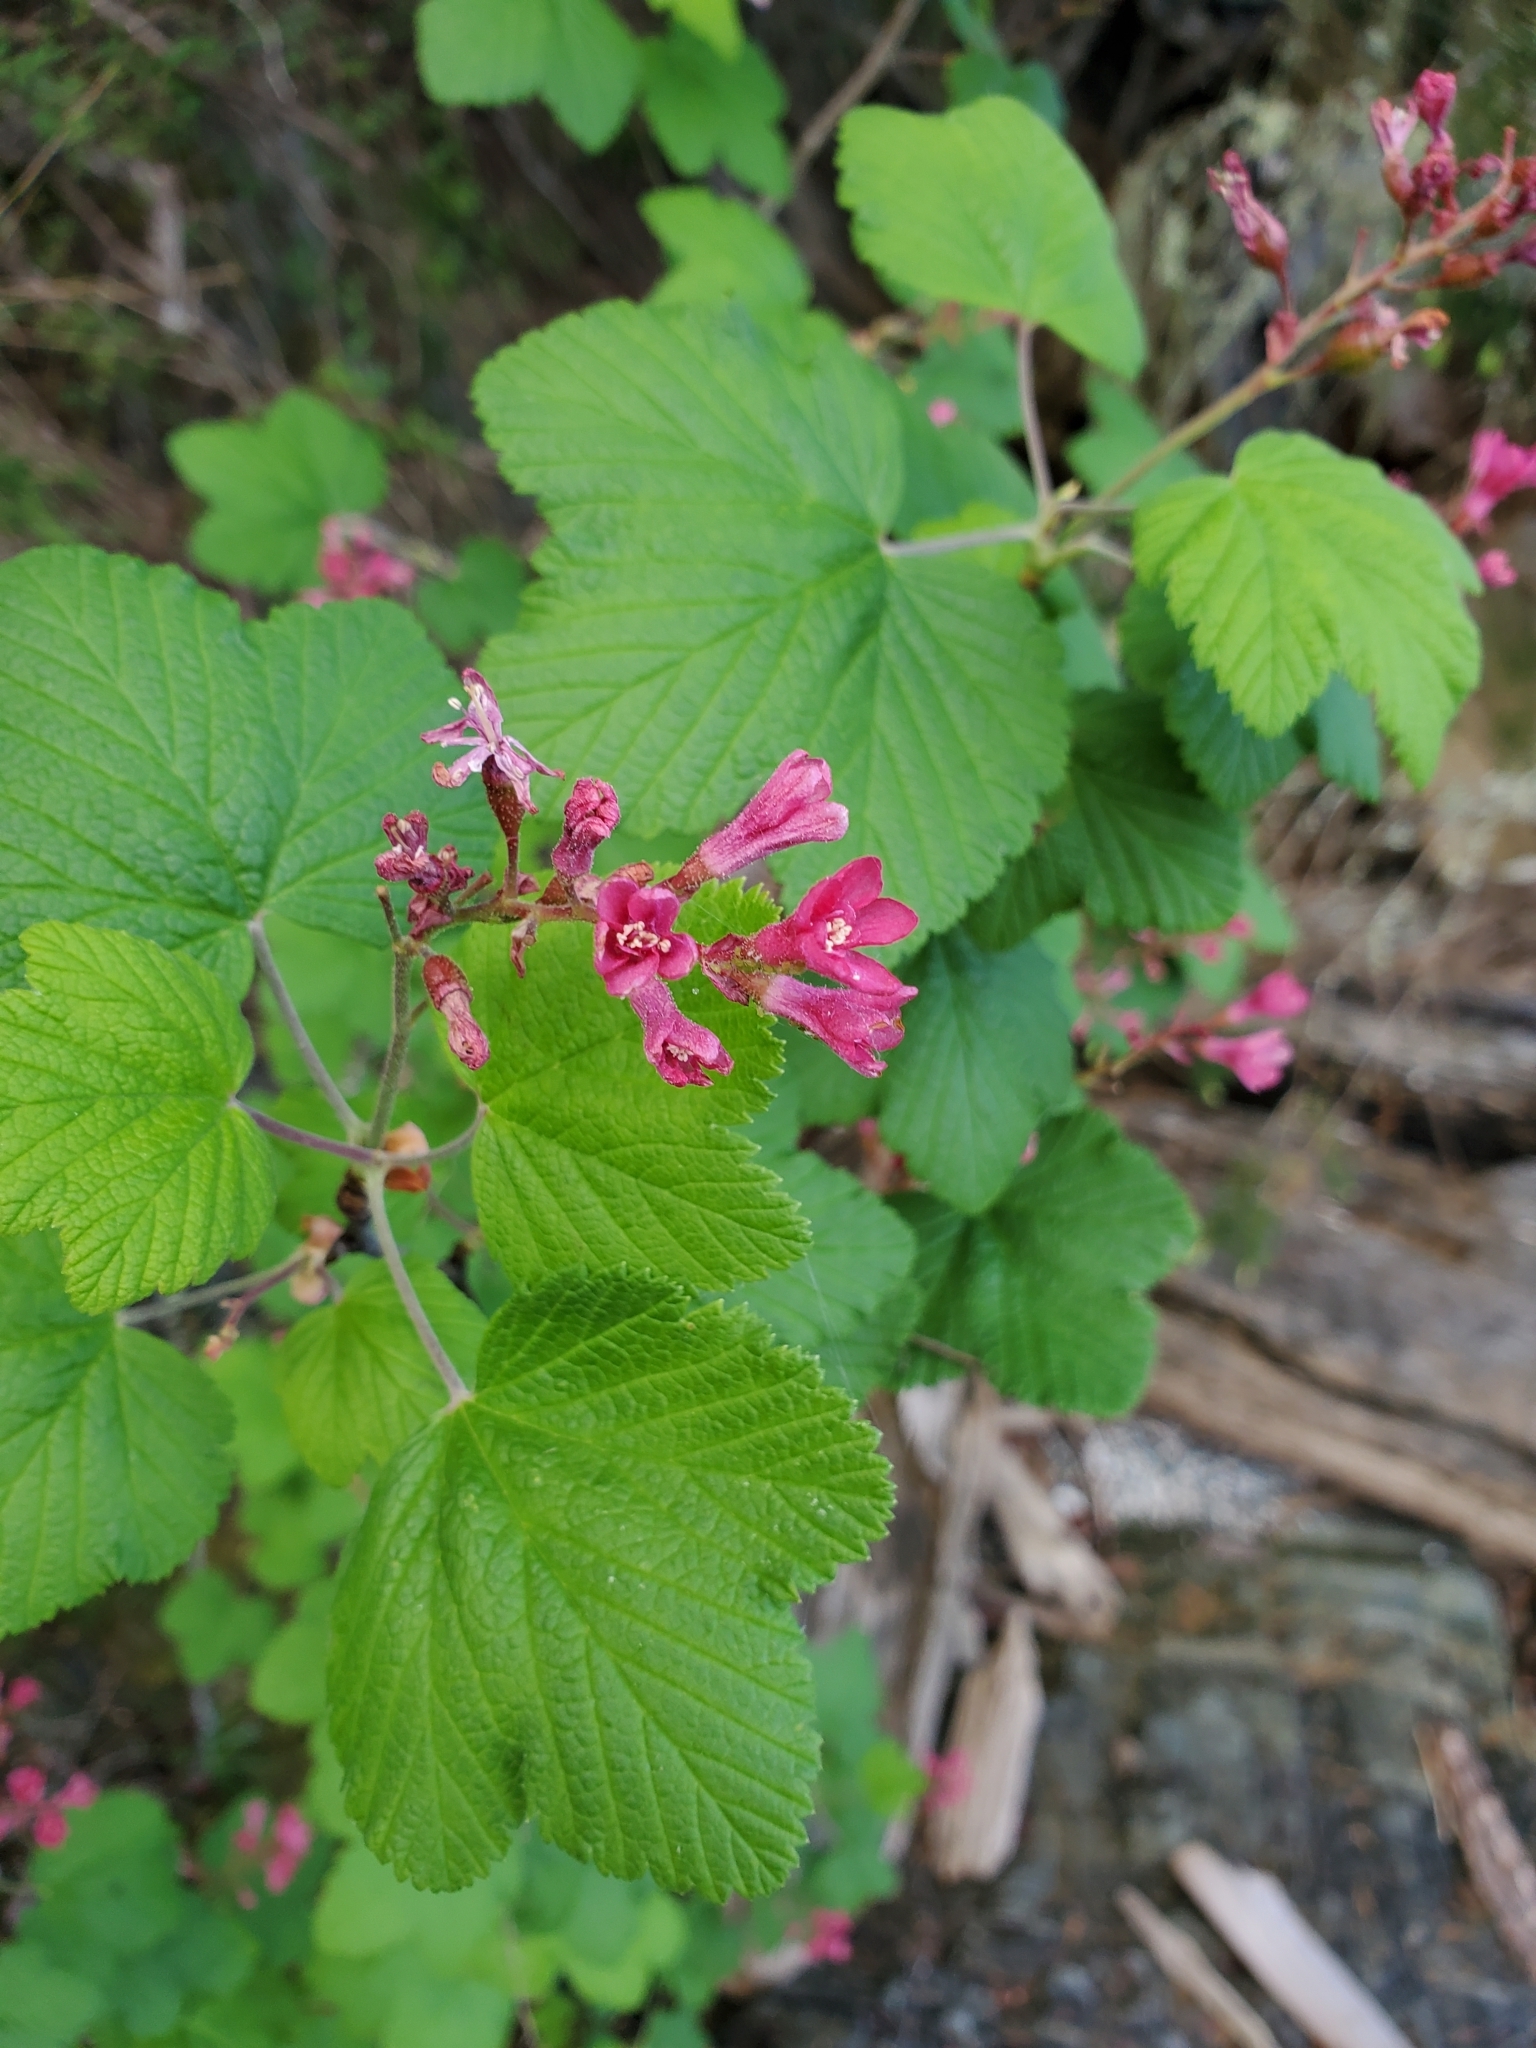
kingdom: Plantae
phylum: Tracheophyta
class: Magnoliopsida
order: Saxifragales
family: Grossulariaceae
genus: Ribes
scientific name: Ribes sanguineum
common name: Flowering currant
